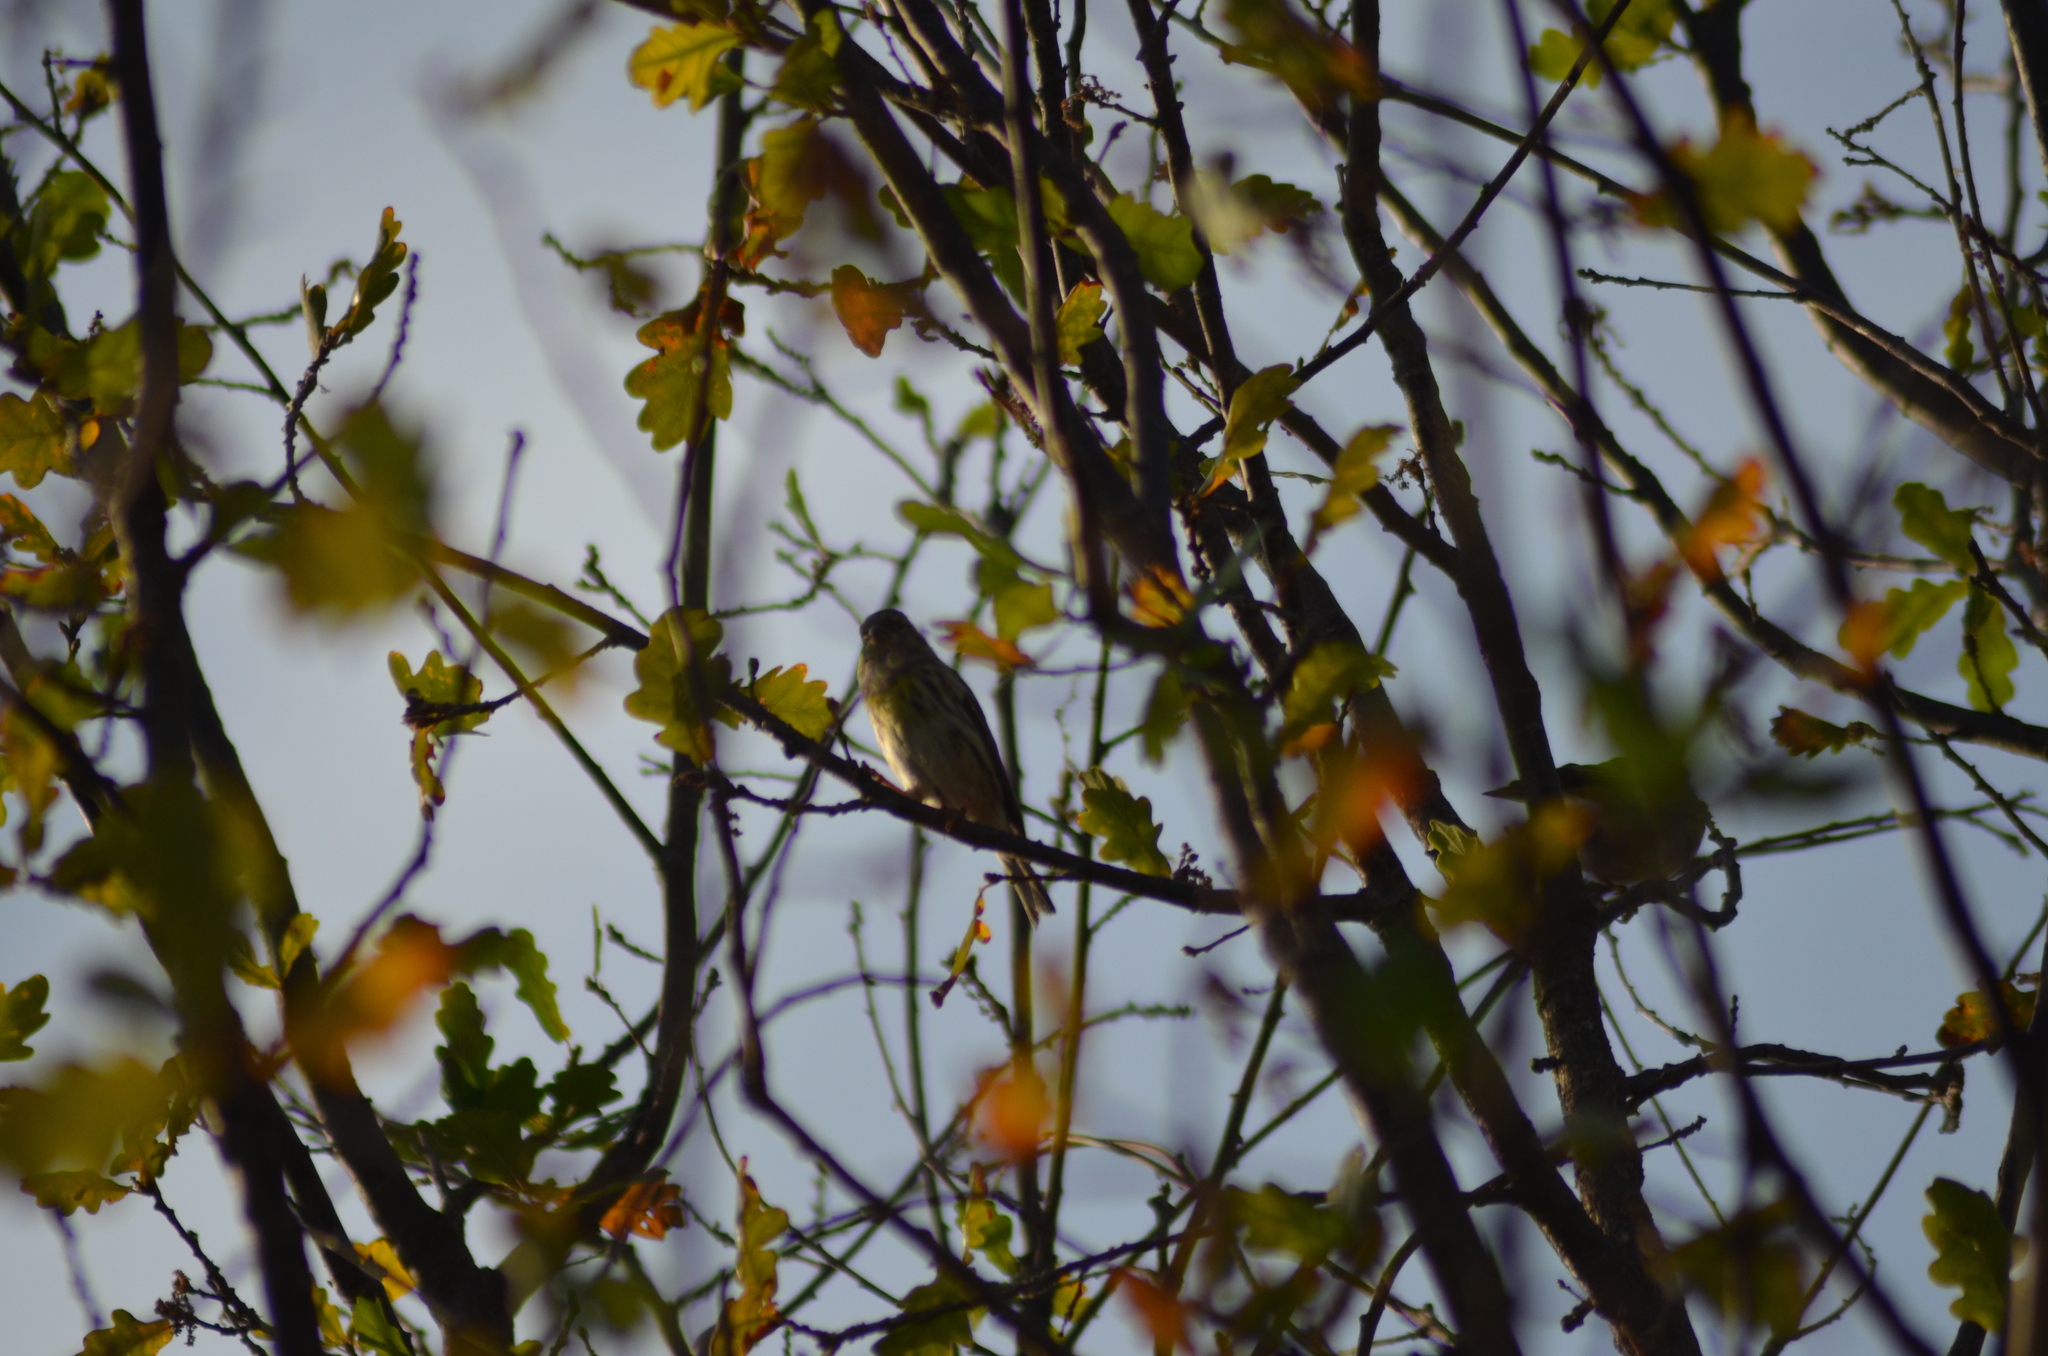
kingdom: Animalia
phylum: Chordata
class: Aves
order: Passeriformes
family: Fringillidae
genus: Serinus
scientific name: Serinus serinus
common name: European serin
